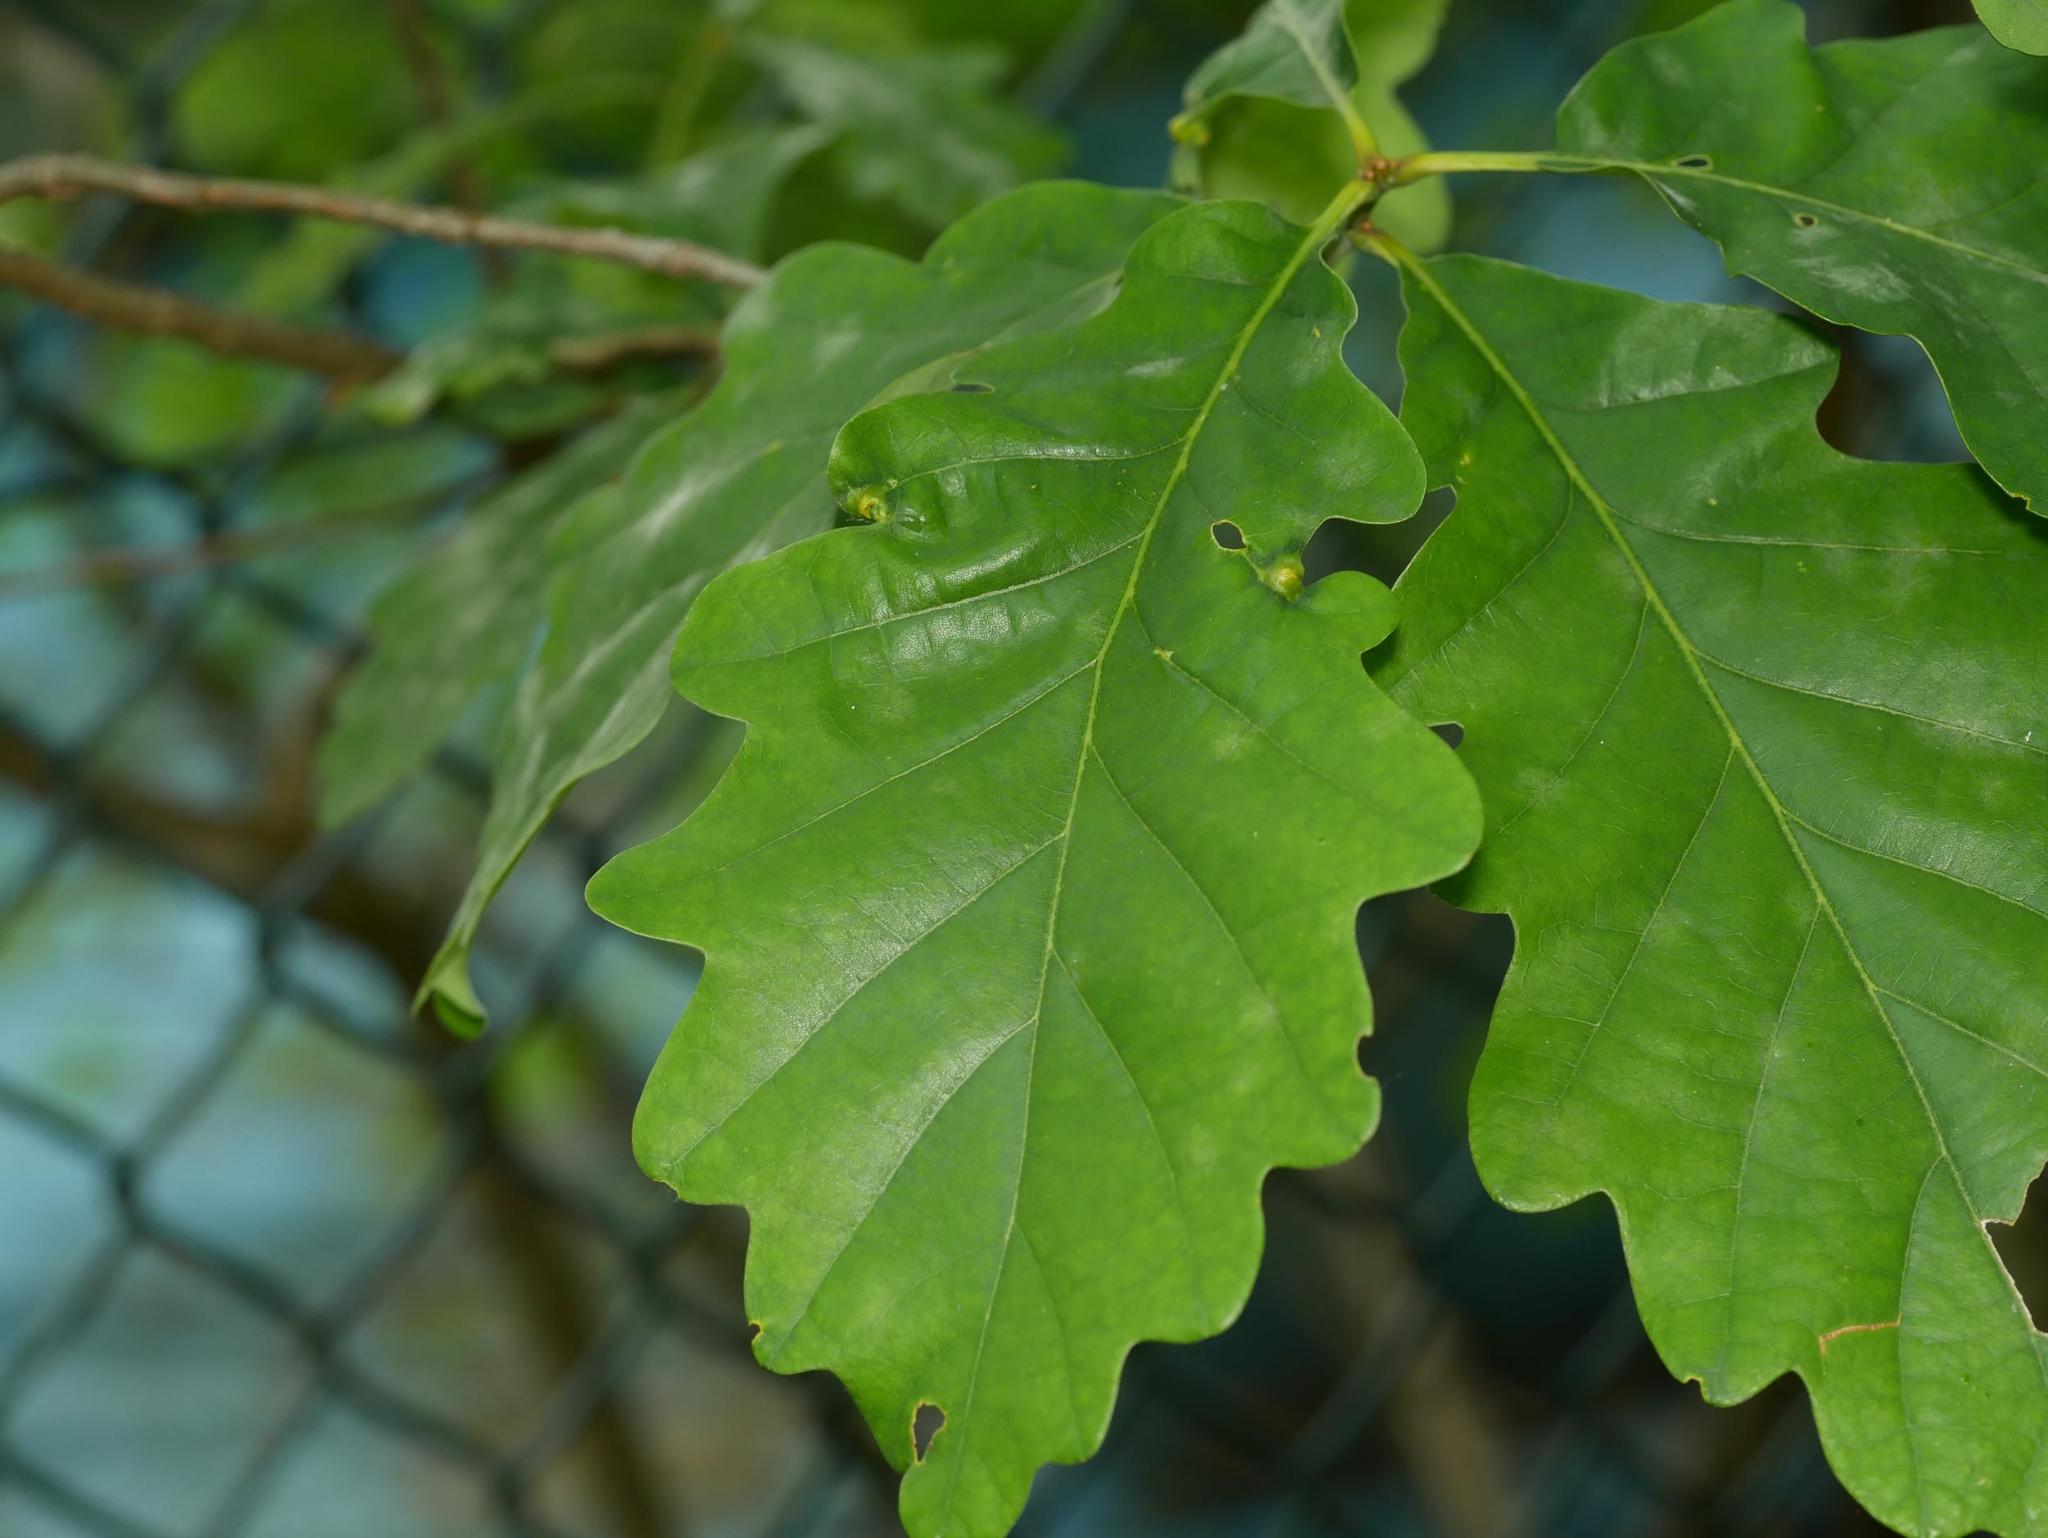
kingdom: Plantae
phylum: Tracheophyta
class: Magnoliopsida
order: Fagales
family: Fagaceae
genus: Quercus
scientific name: Quercus robur
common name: Pedunculate oak
